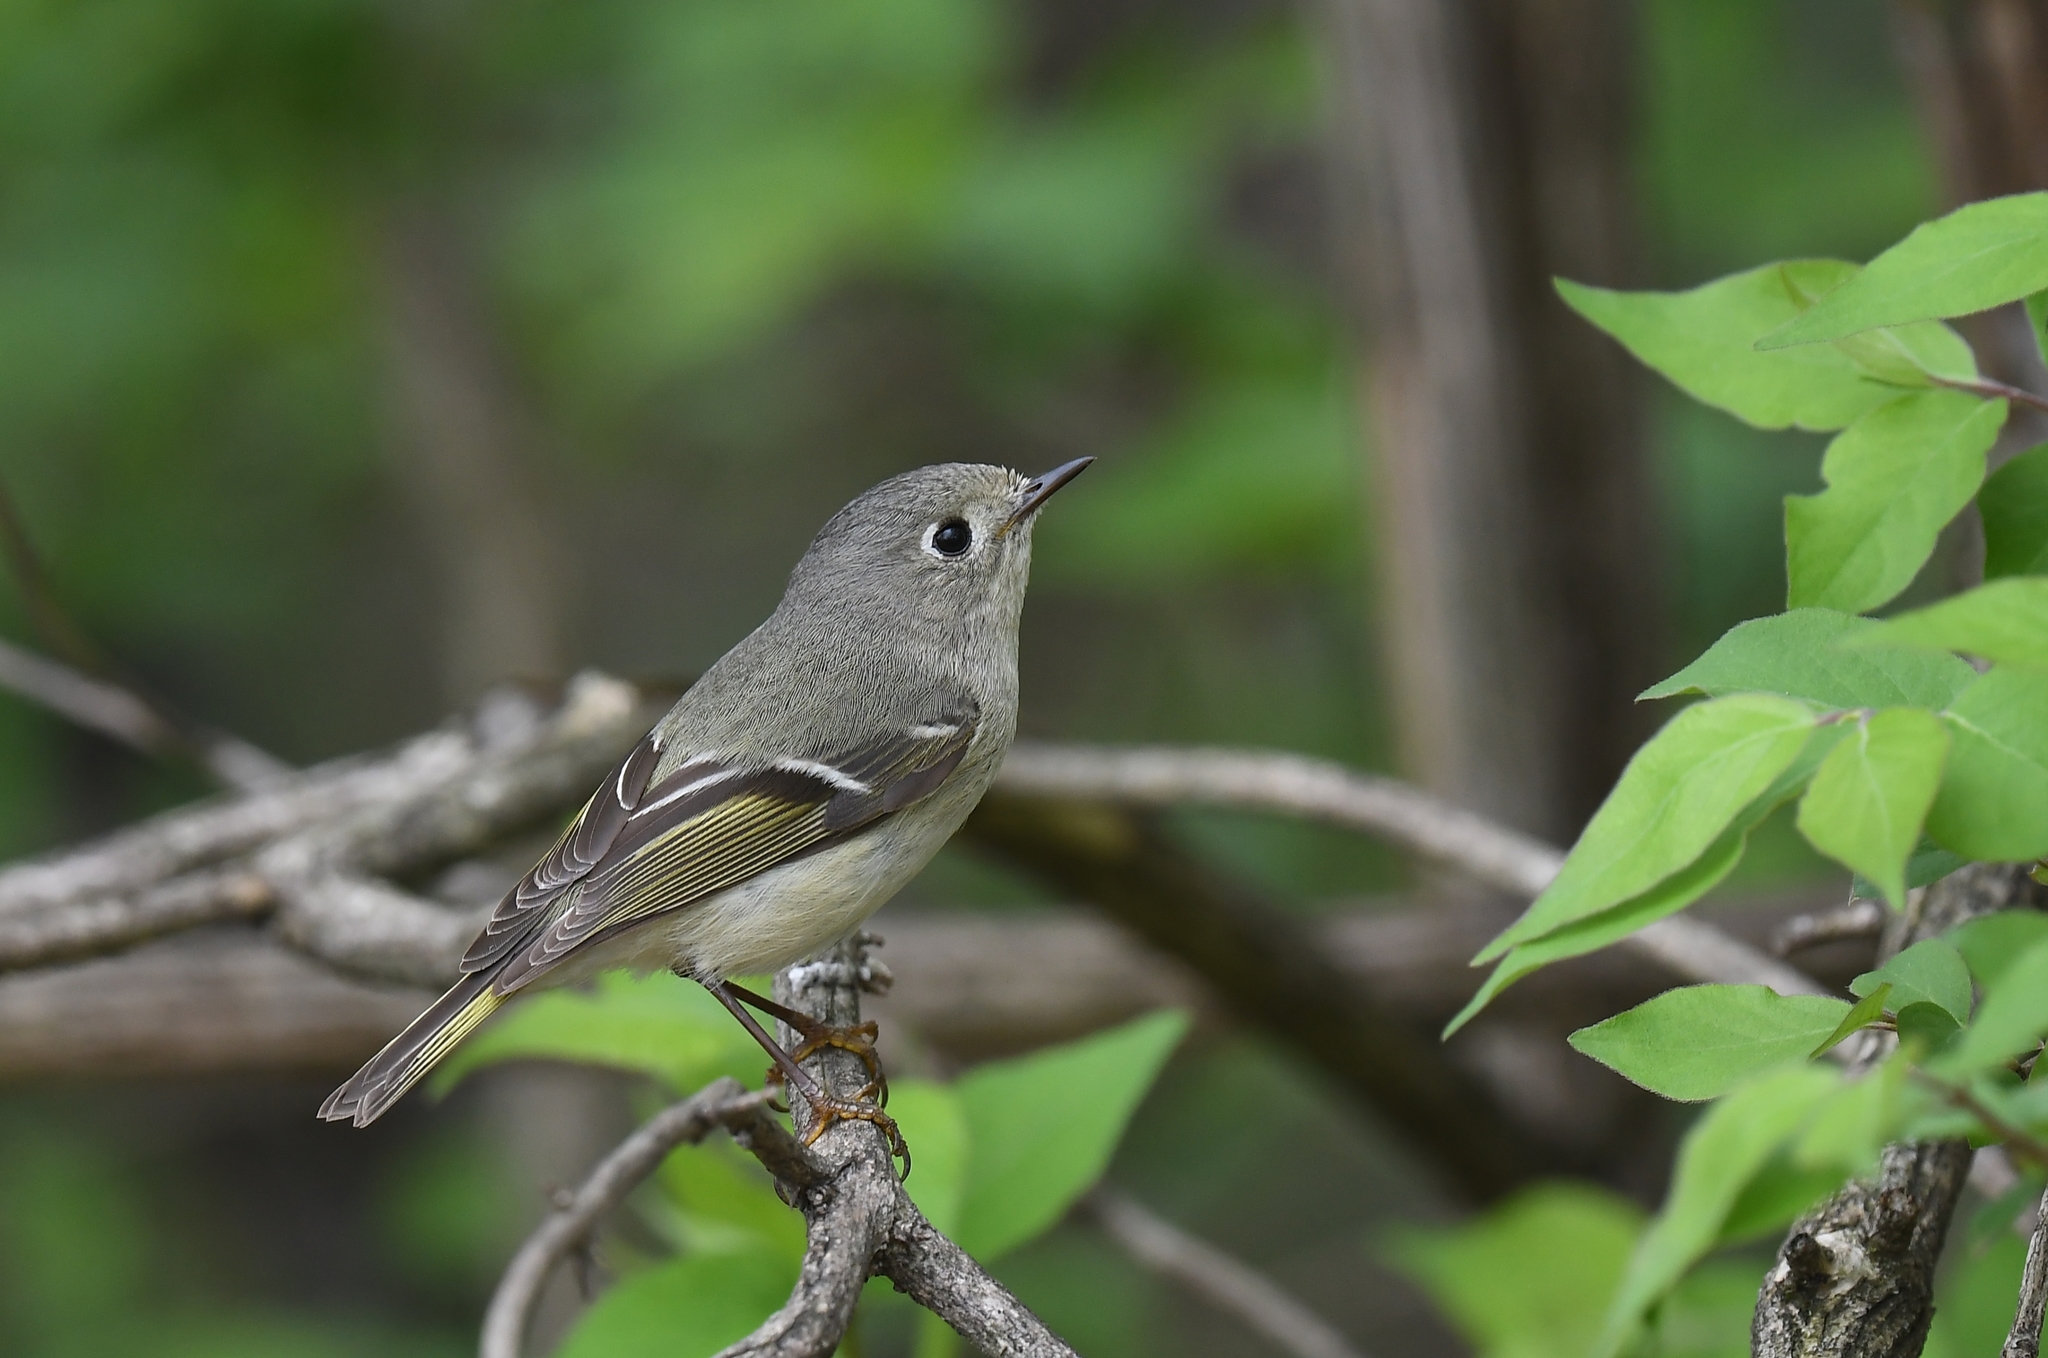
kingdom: Animalia
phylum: Chordata
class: Aves
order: Passeriformes
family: Regulidae
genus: Regulus
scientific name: Regulus calendula
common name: Ruby-crowned kinglet
